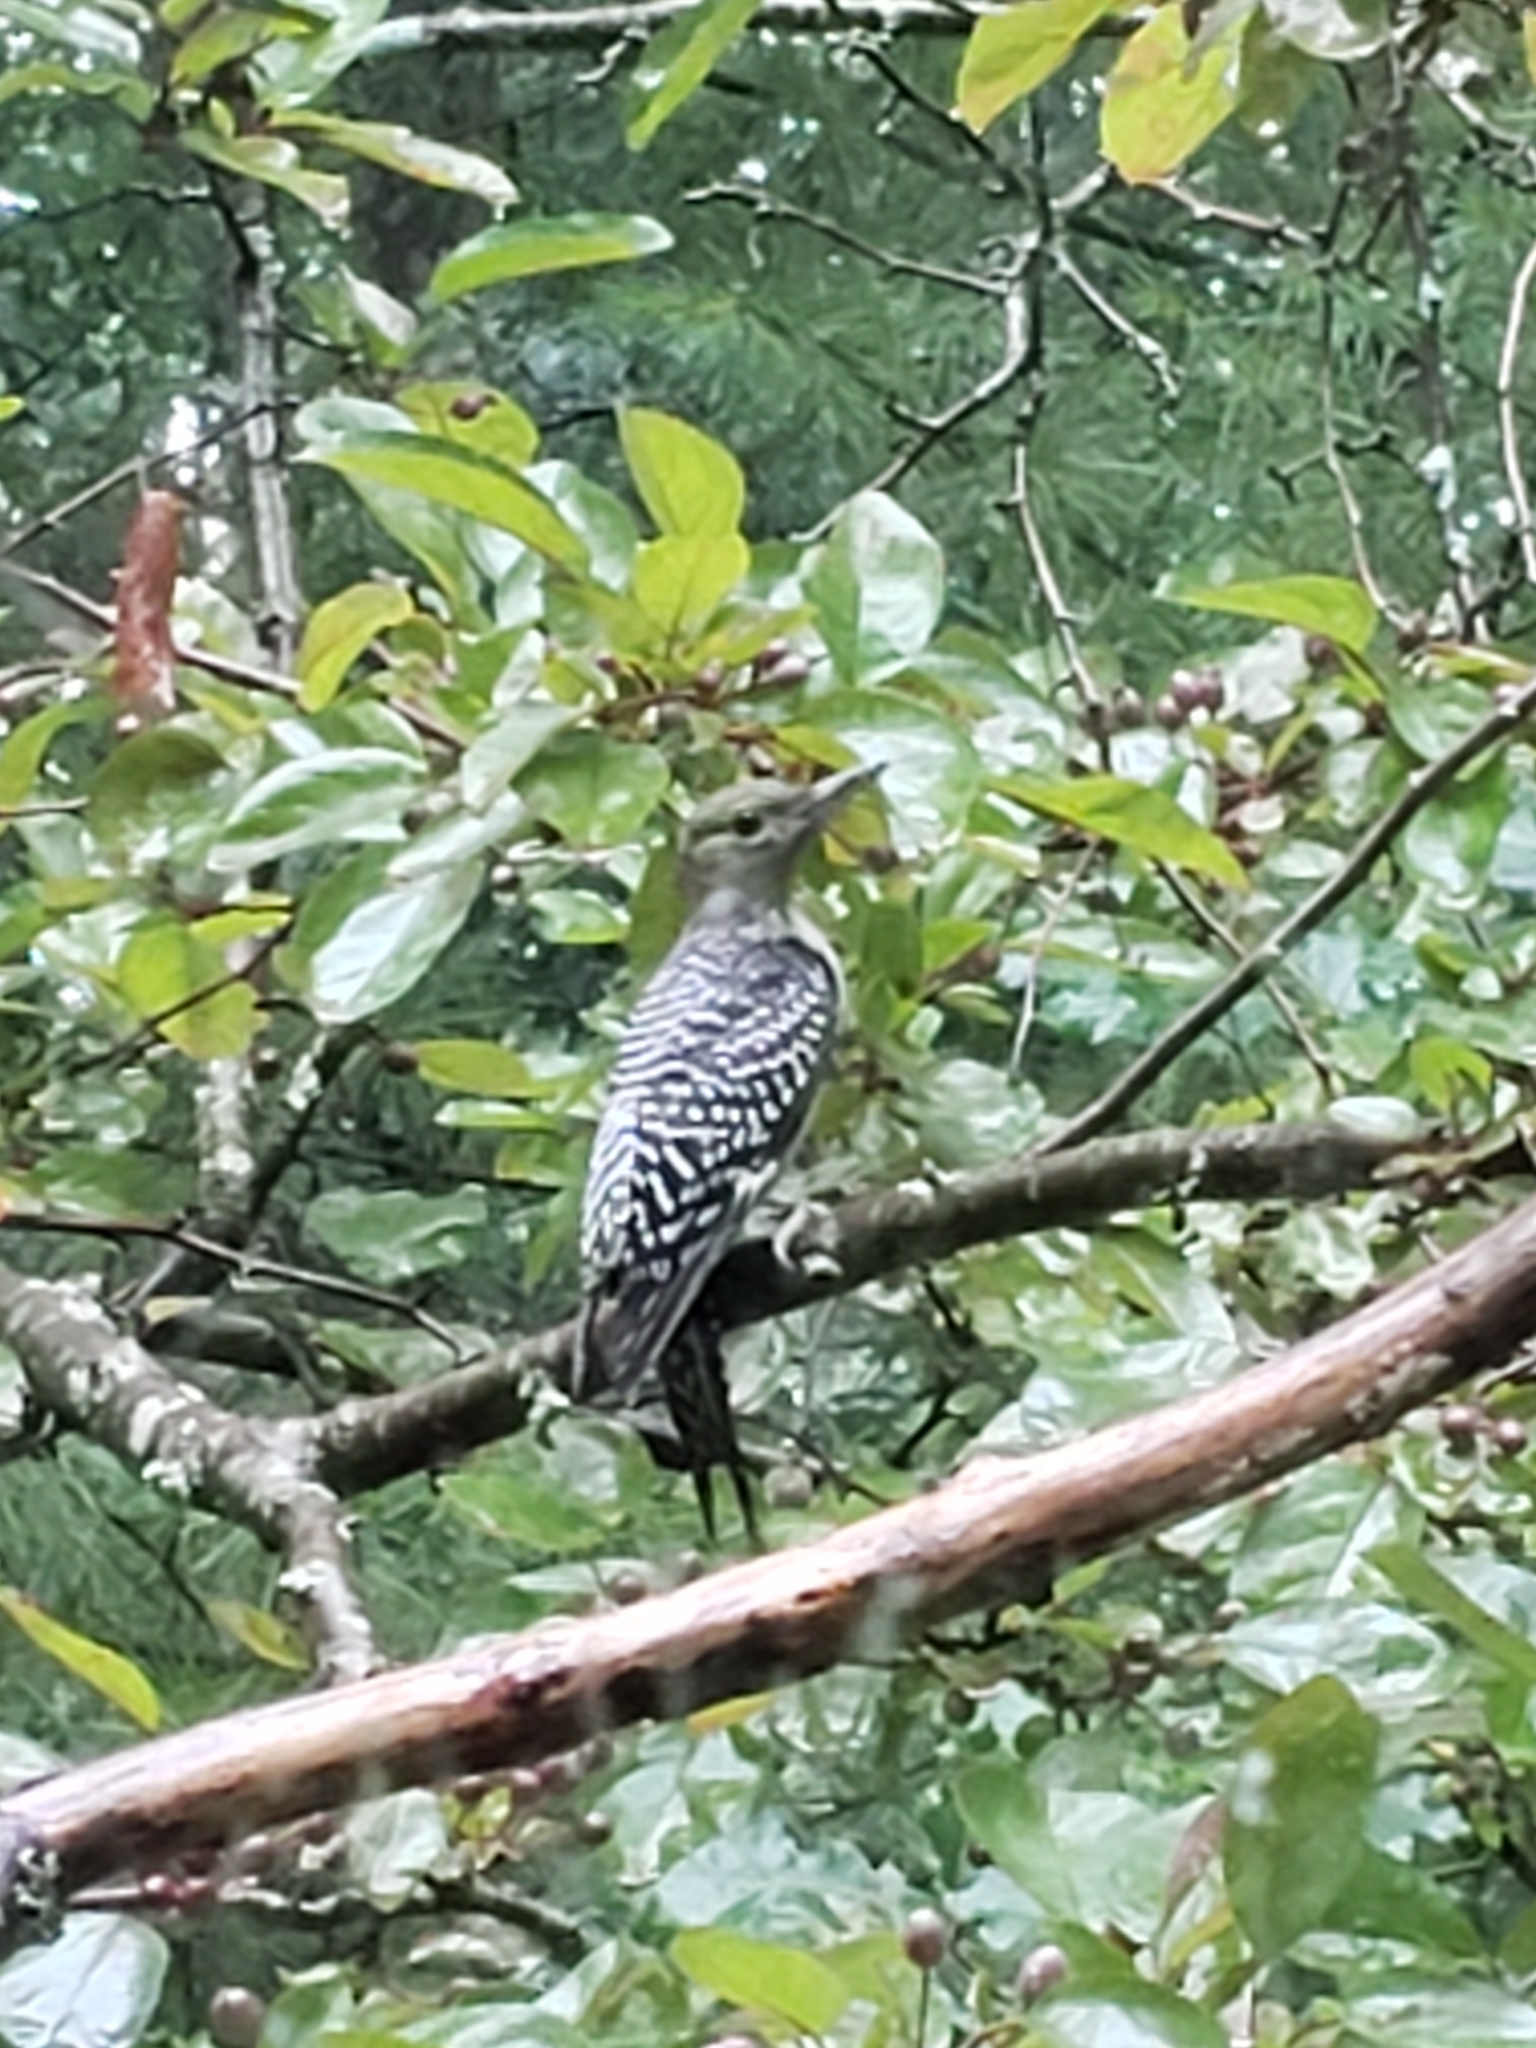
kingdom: Animalia
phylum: Chordata
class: Aves
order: Piciformes
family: Picidae
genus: Melanerpes
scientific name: Melanerpes carolinus
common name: Red-bellied woodpecker
